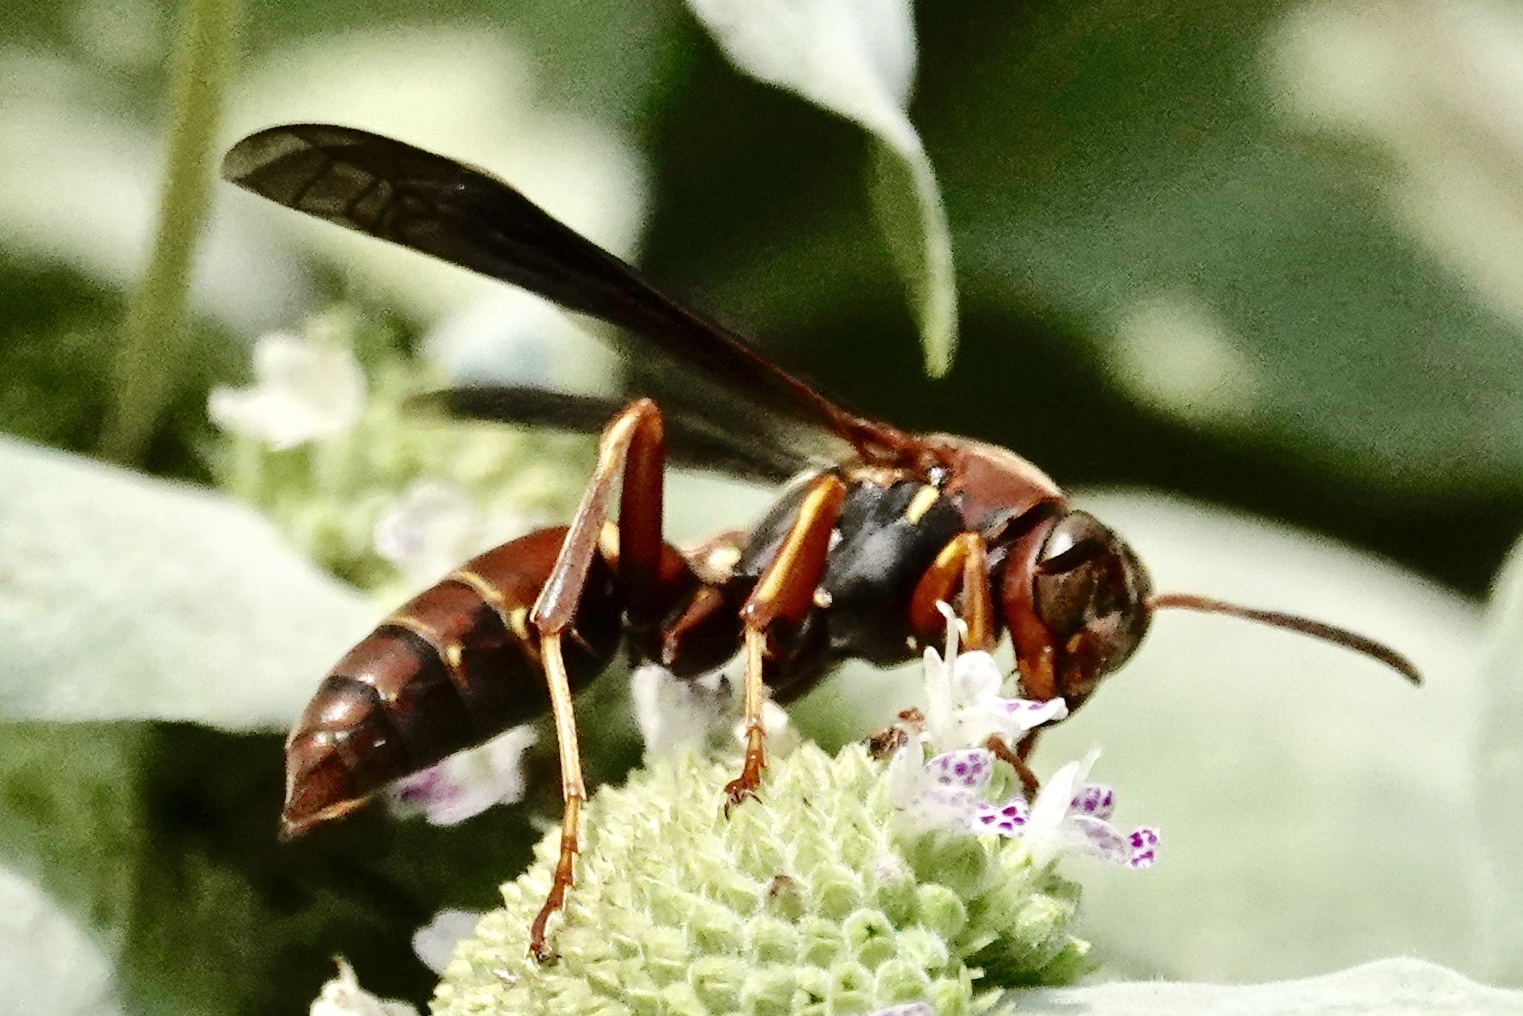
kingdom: Animalia
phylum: Arthropoda
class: Insecta
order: Hymenoptera
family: Eumenidae
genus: Polistes
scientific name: Polistes fuscatus
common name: Dark paper wasp
